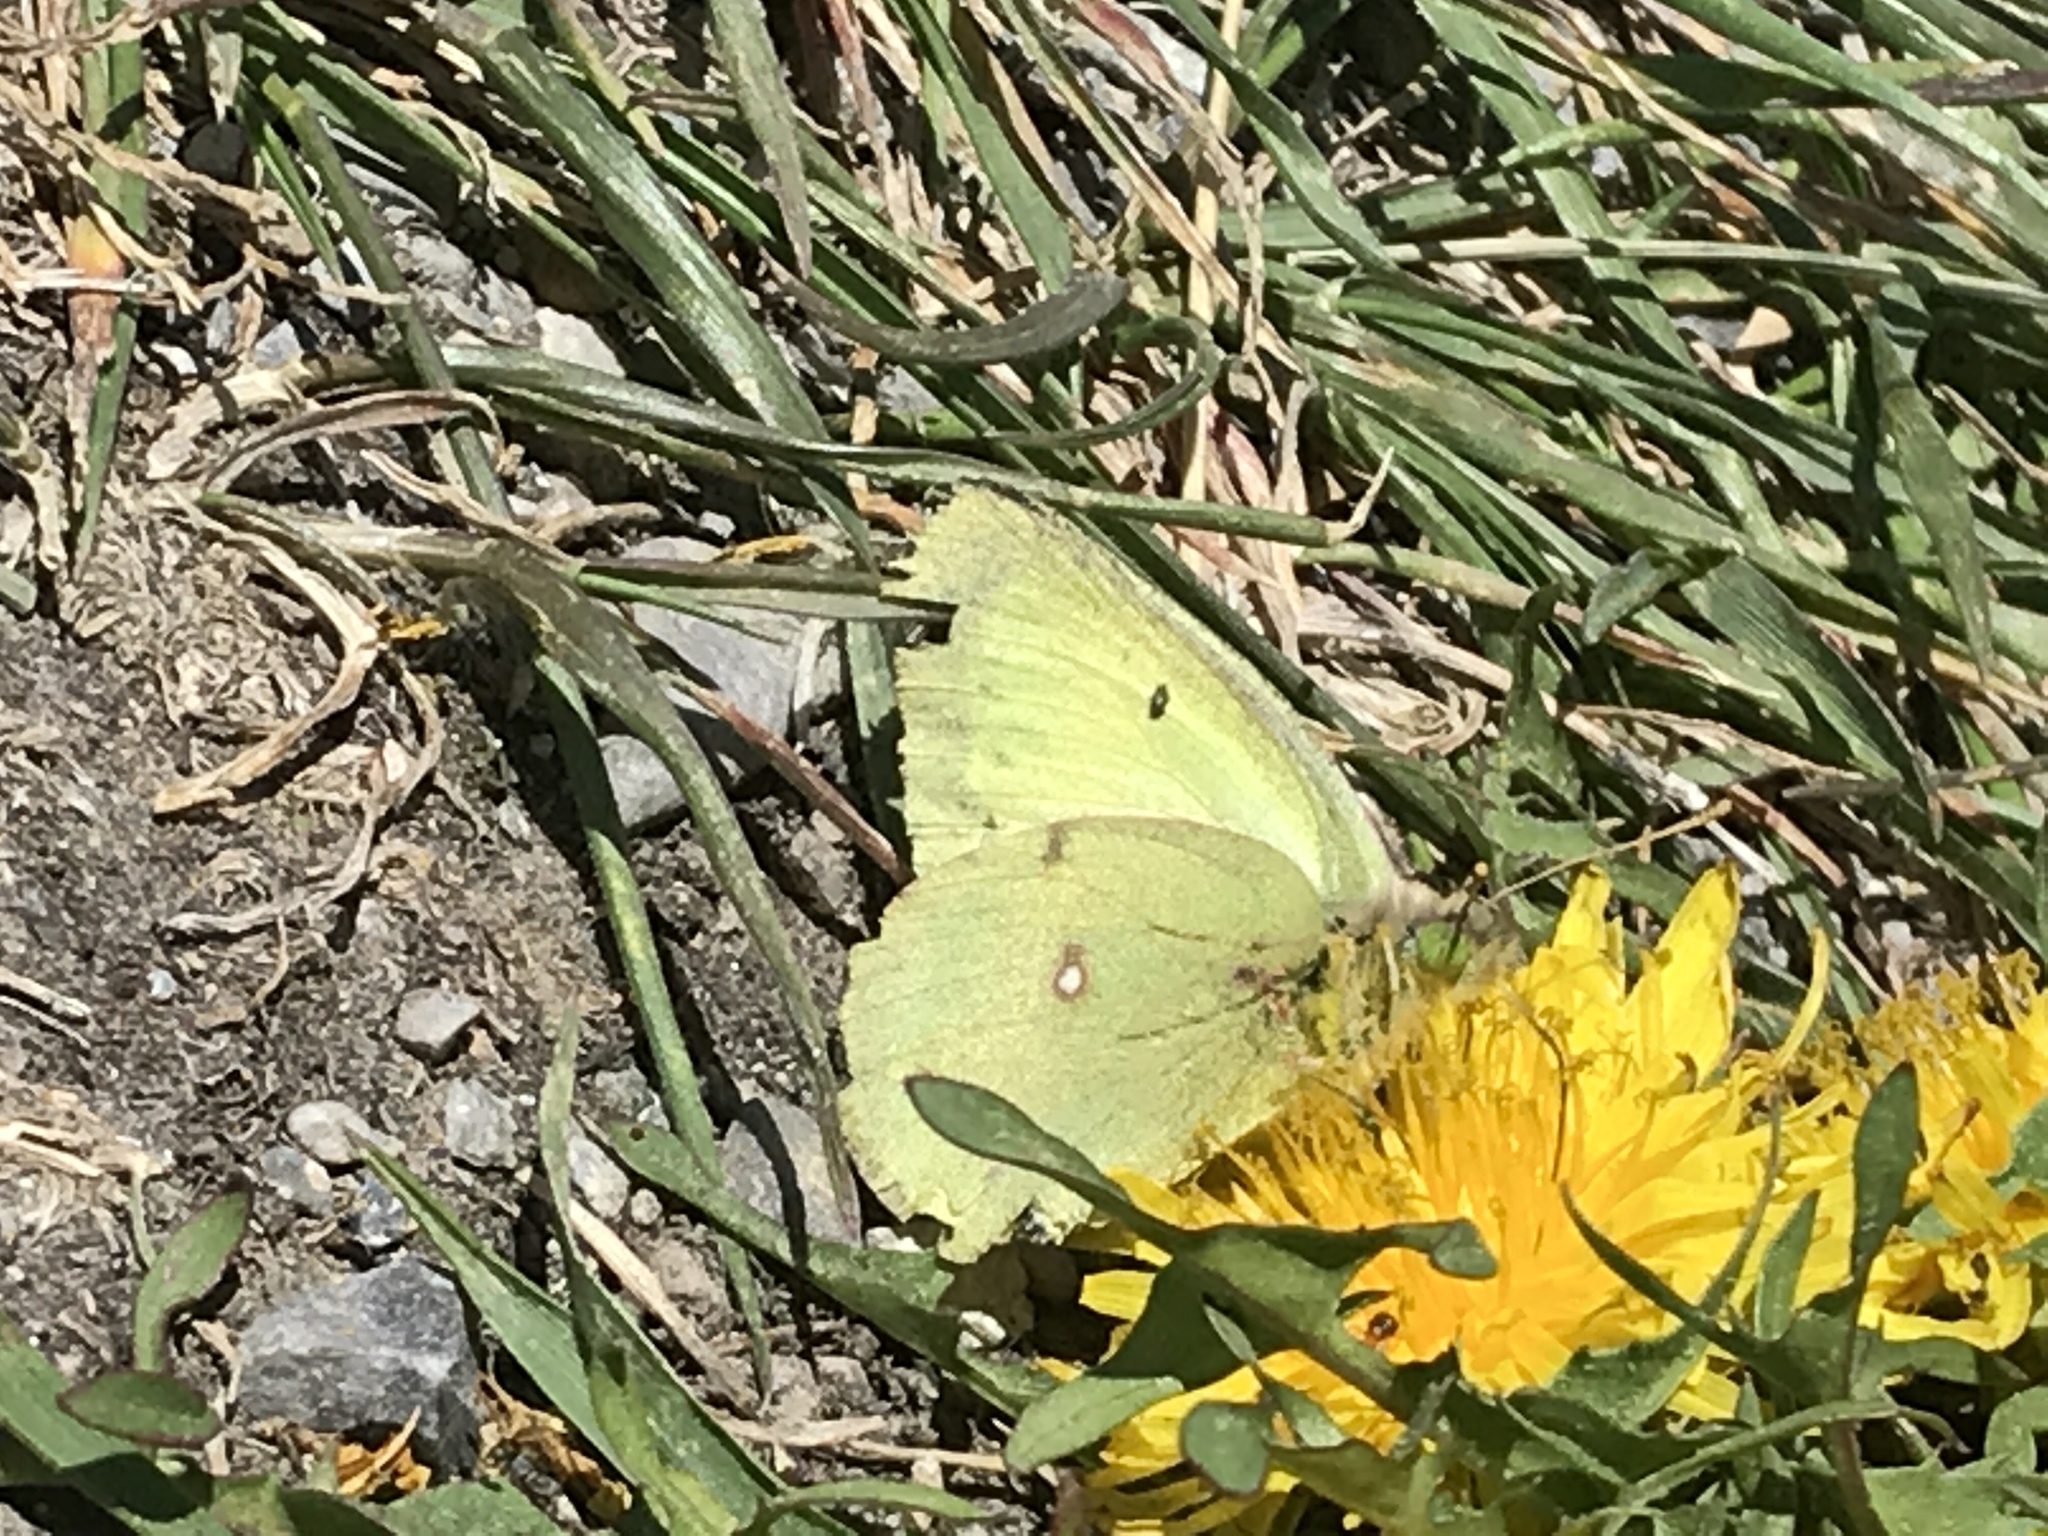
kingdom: Animalia
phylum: Arthropoda
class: Insecta
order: Lepidoptera
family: Pieridae
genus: Colias
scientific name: Colias philodice
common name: Clouded sulphur
